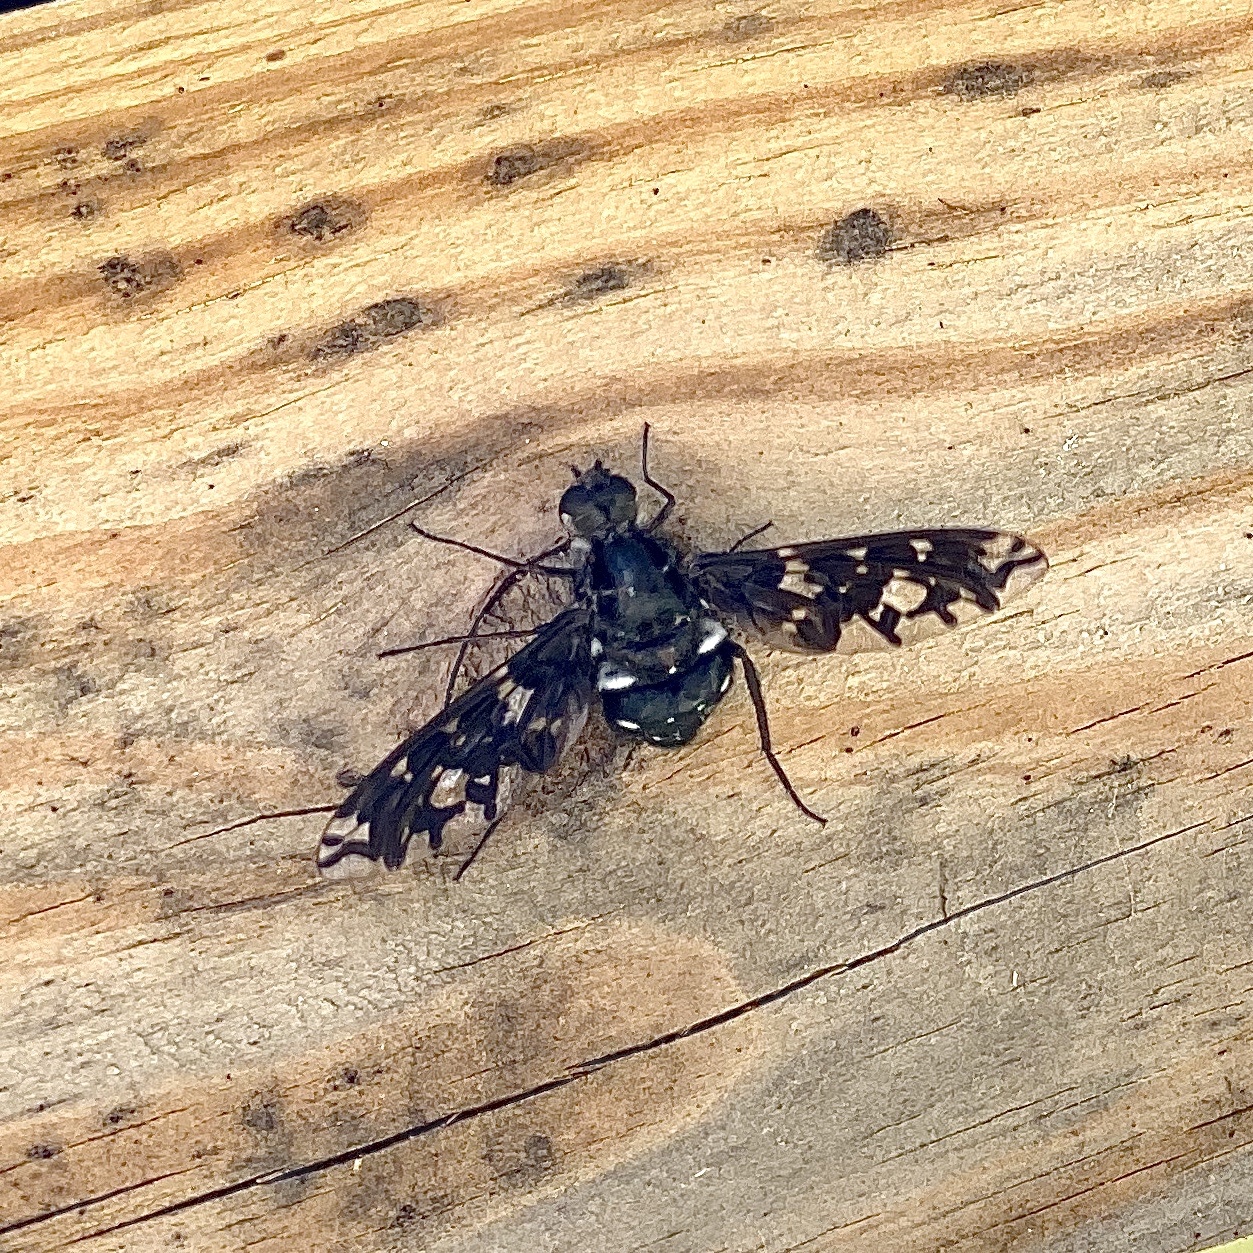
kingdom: Animalia
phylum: Arthropoda
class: Insecta
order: Diptera
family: Bombyliidae
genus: Xenox
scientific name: Xenox tigrinus
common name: Tiger bee fly
